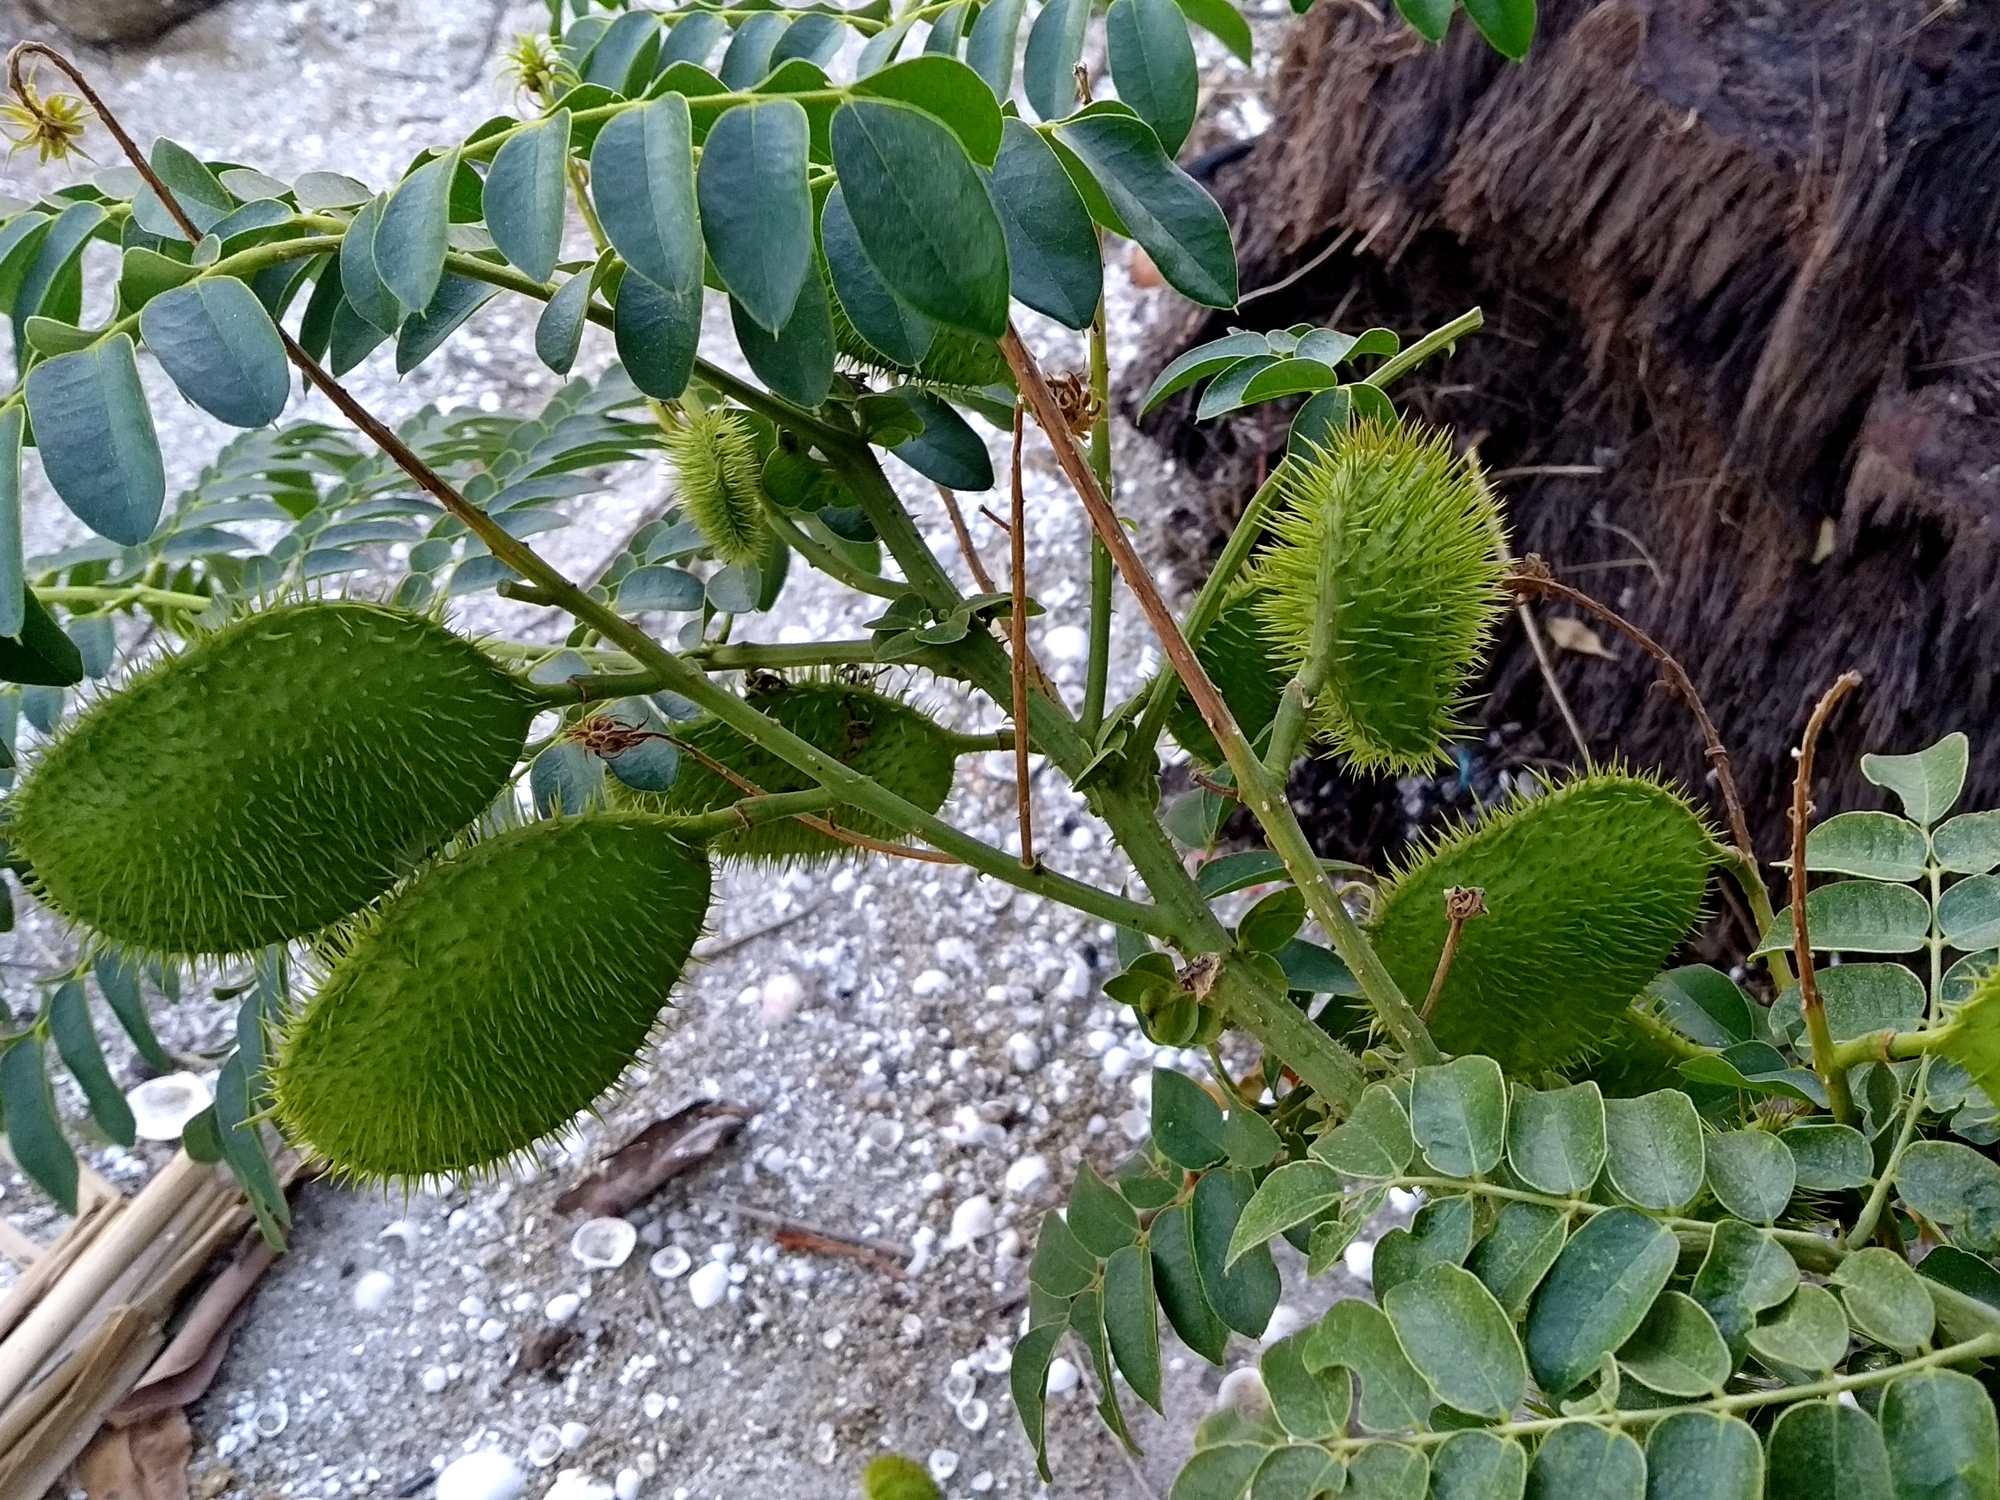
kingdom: Plantae
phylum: Tracheophyta
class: Magnoliopsida
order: Fabales
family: Fabaceae
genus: Guilandina
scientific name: Guilandina bonduc
